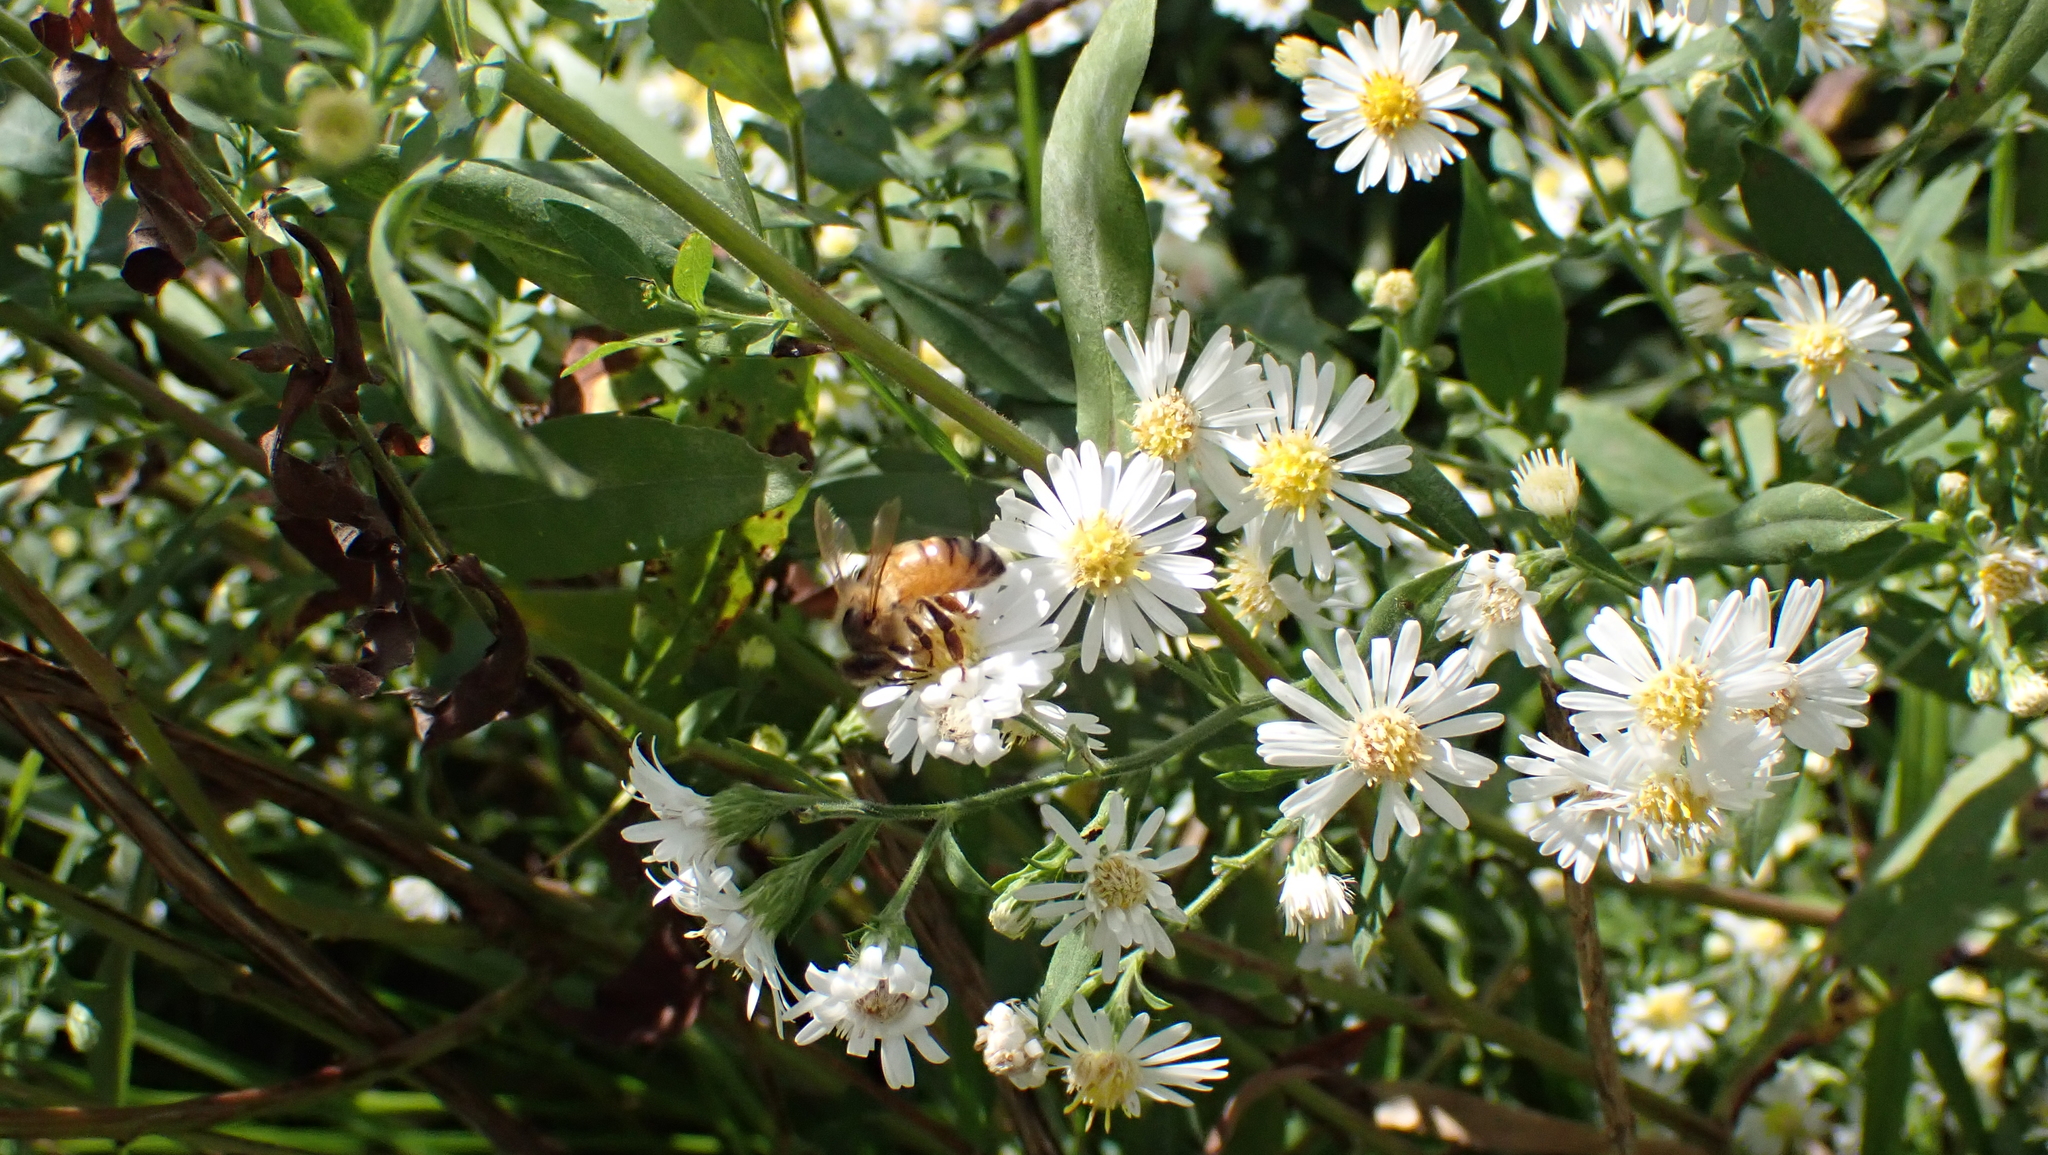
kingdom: Animalia
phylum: Arthropoda
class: Insecta
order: Hymenoptera
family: Apidae
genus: Apis
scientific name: Apis mellifera
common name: Honey bee
